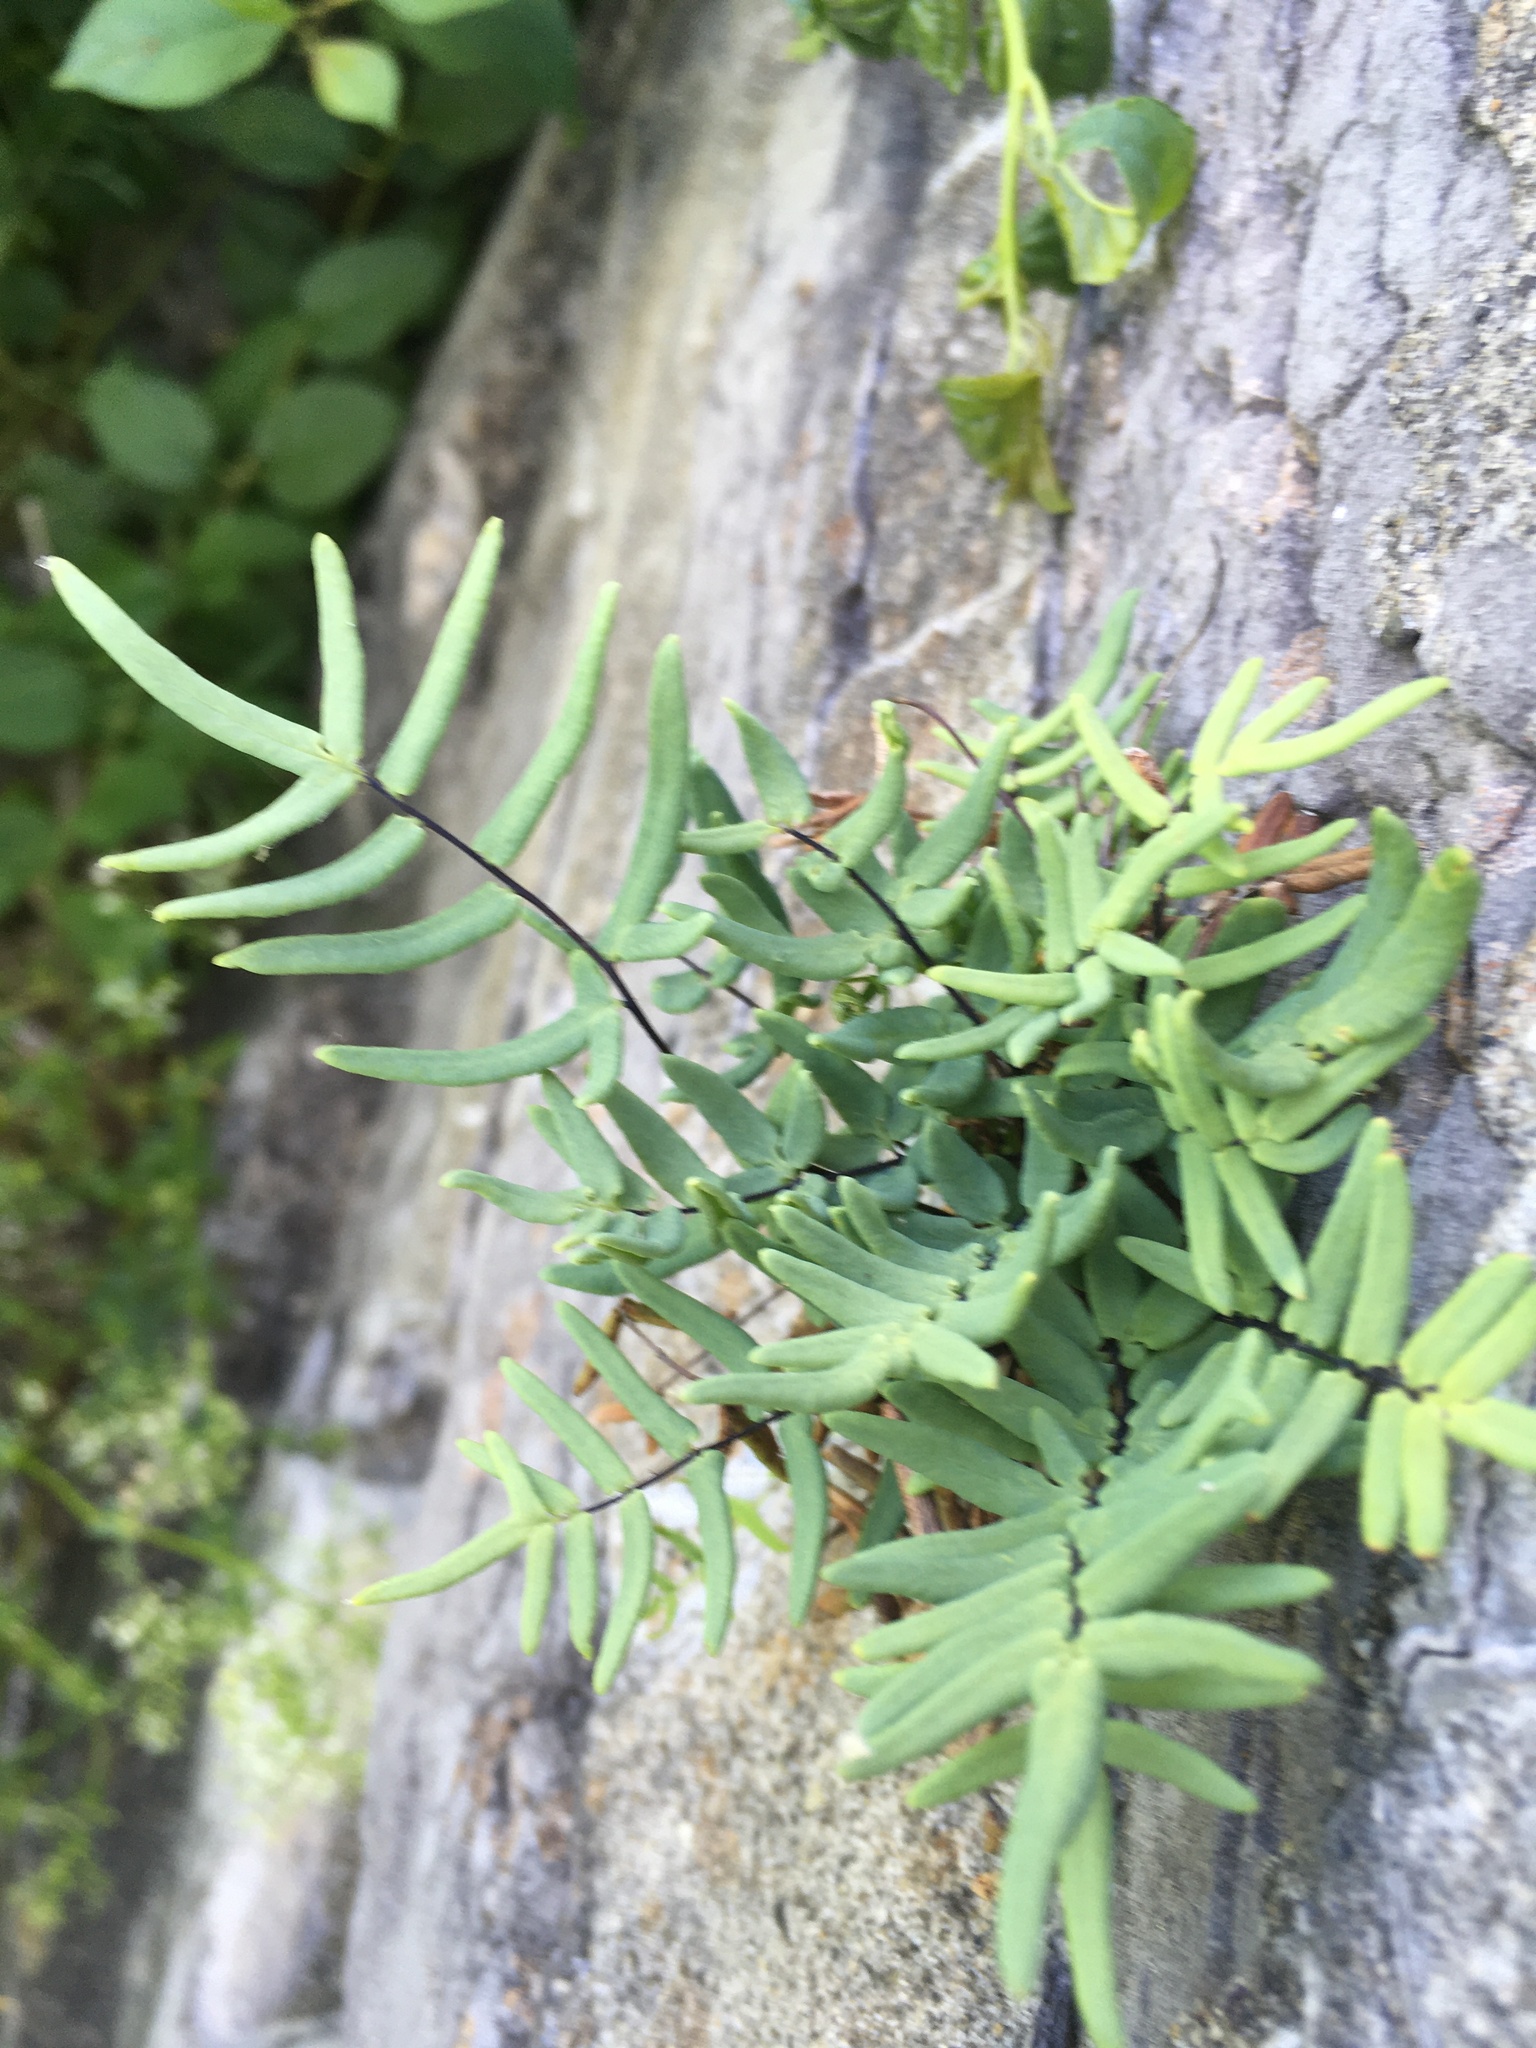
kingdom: Plantae
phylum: Tracheophyta
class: Polypodiopsida
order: Polypodiales
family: Pteridaceae
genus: Pellaea
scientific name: Pellaea glabella
